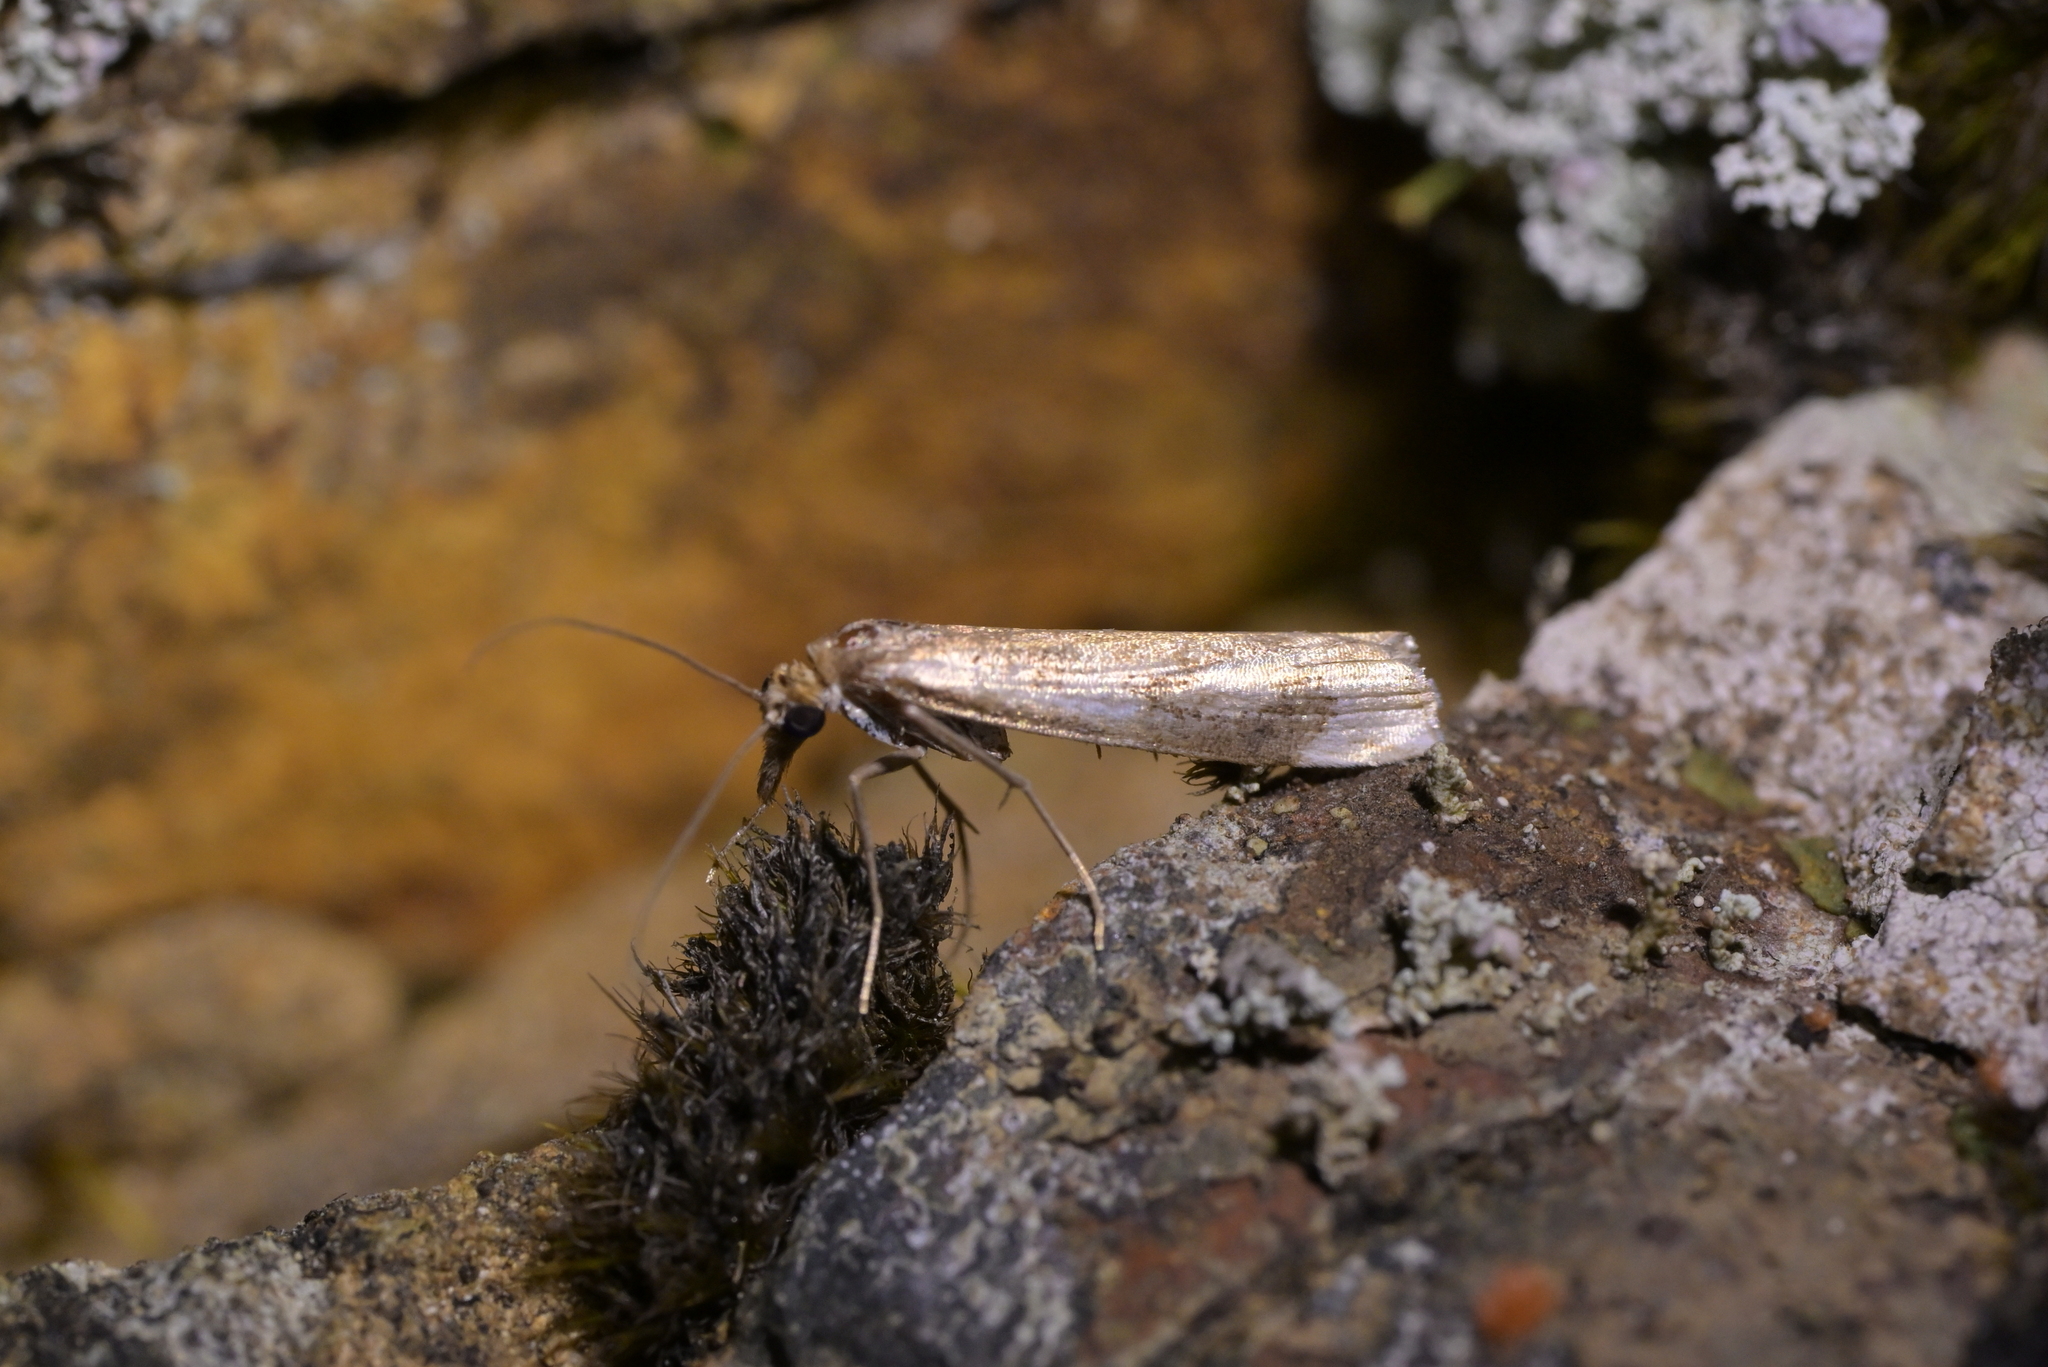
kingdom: Animalia
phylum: Arthropoda
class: Insecta
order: Lepidoptera
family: Crambidae
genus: Orocrambus
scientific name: Orocrambus vulgaris
